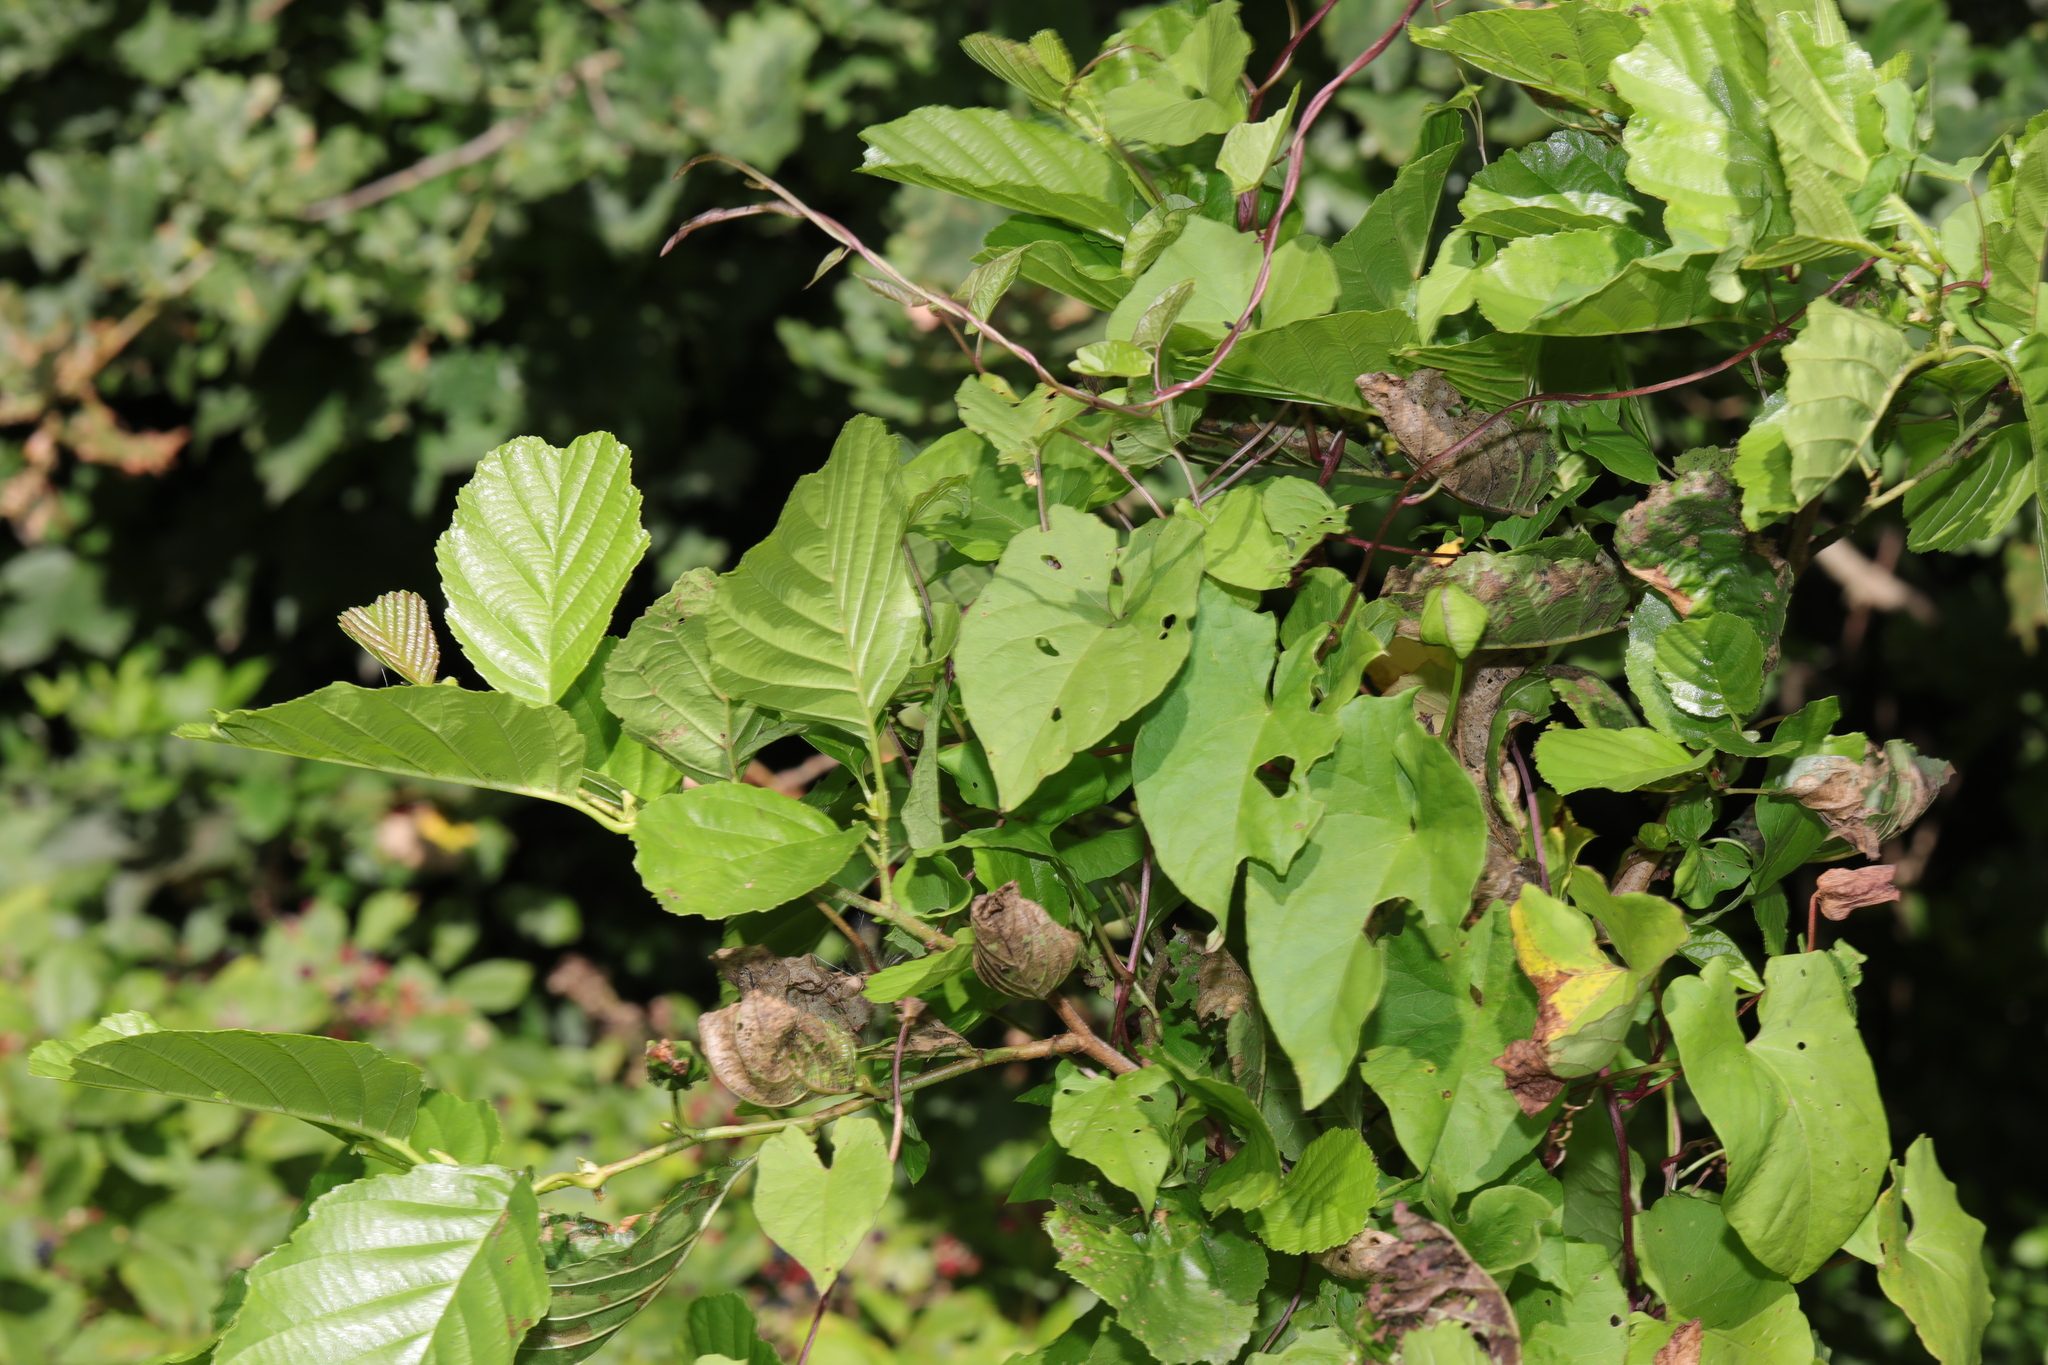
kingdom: Plantae
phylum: Tracheophyta
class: Magnoliopsida
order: Solanales
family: Convolvulaceae
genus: Calystegia
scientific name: Calystegia silvatica
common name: Large bindweed
